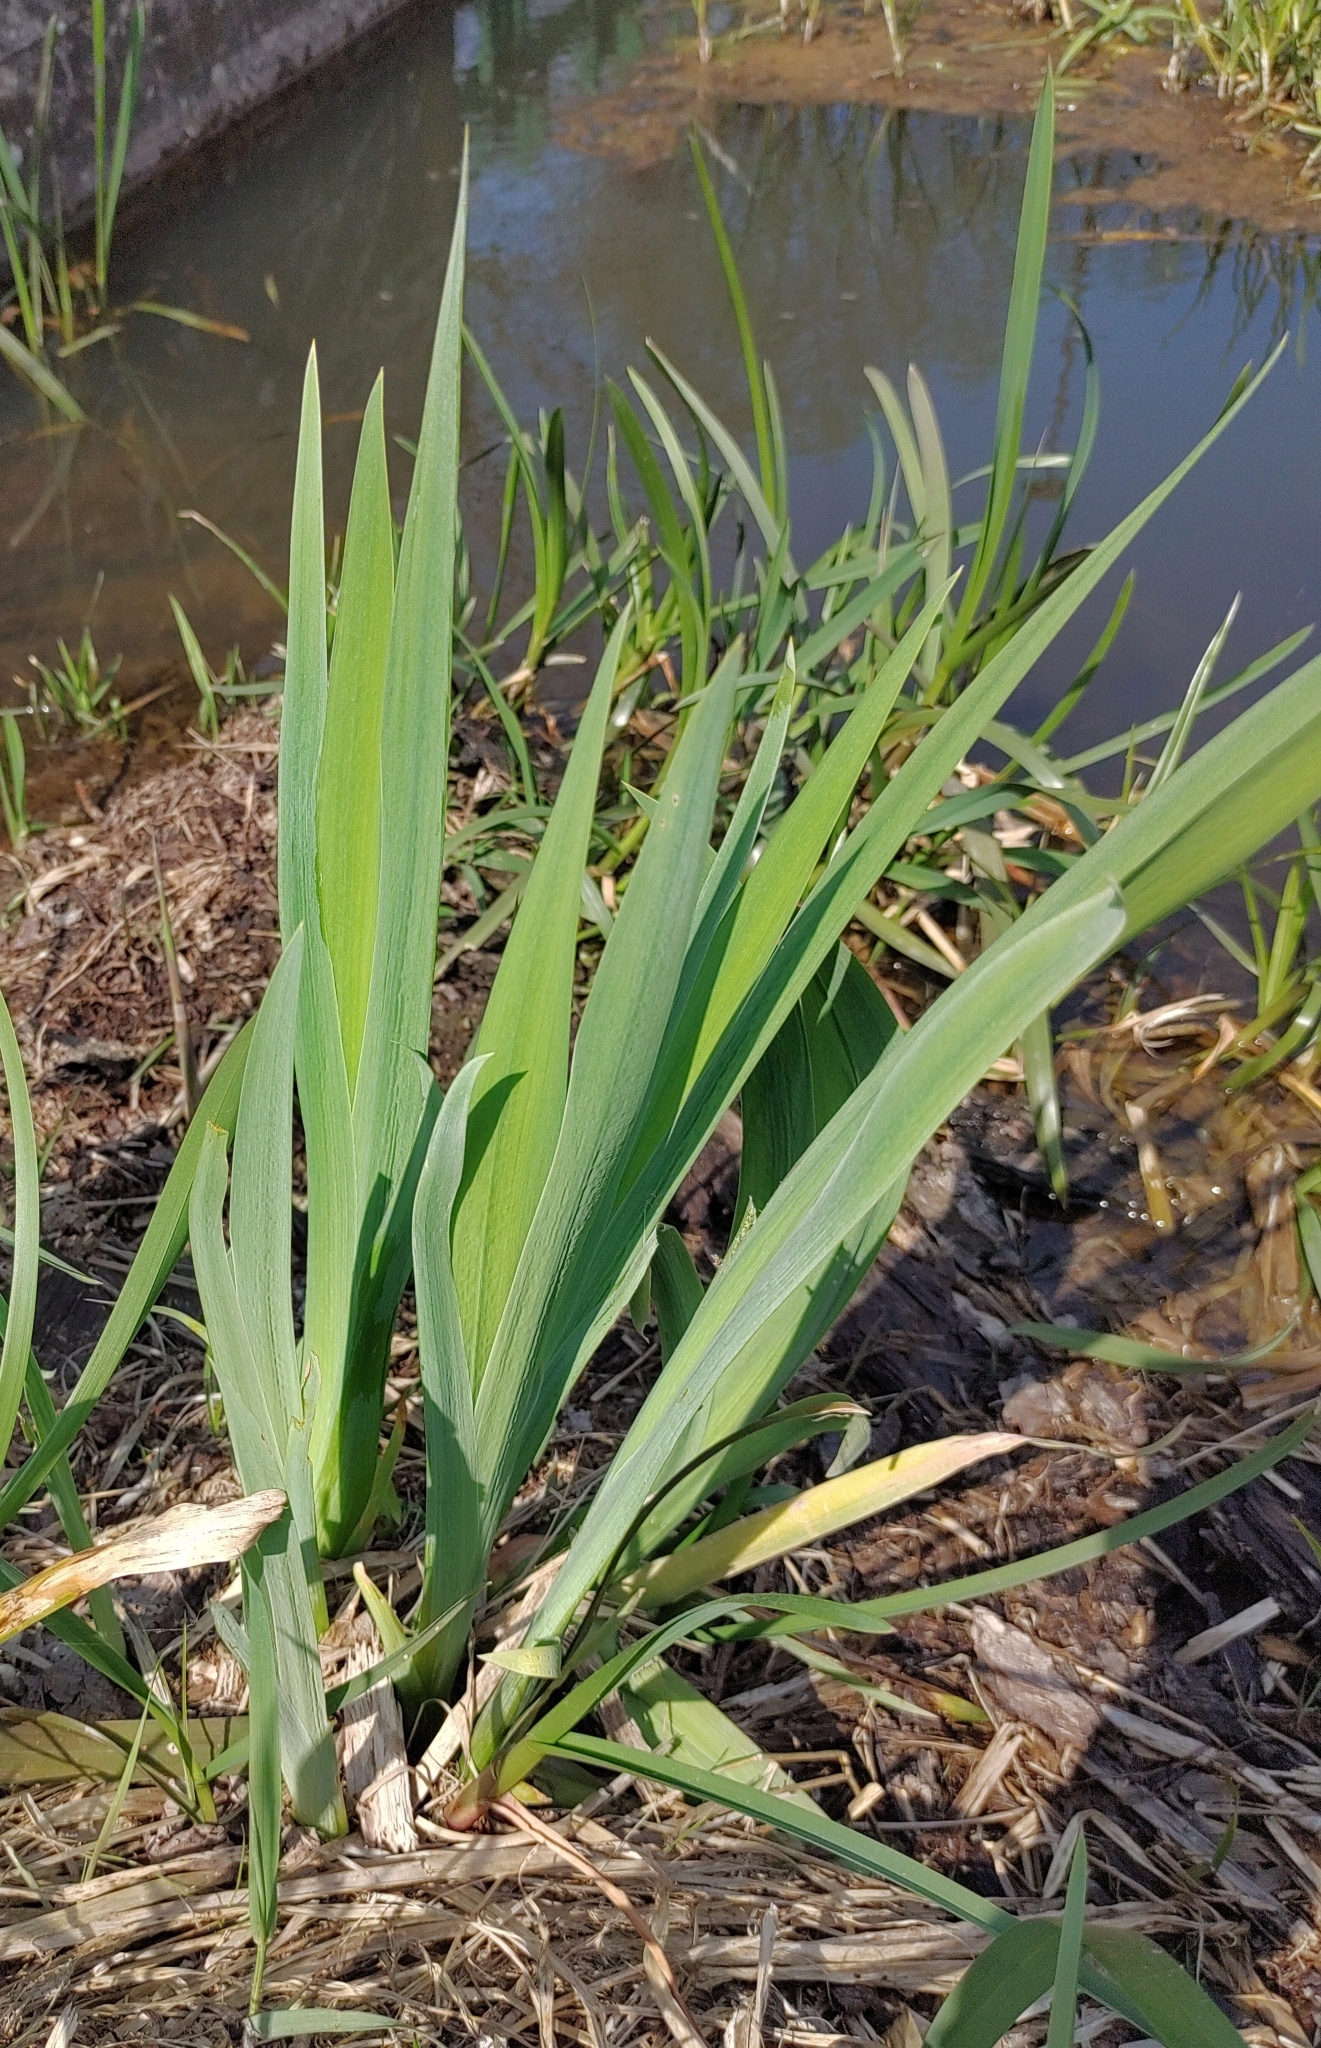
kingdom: Plantae
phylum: Tracheophyta
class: Liliopsida
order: Asparagales
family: Iridaceae
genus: Iris
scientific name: Iris pseudacorus
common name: Yellow flag
